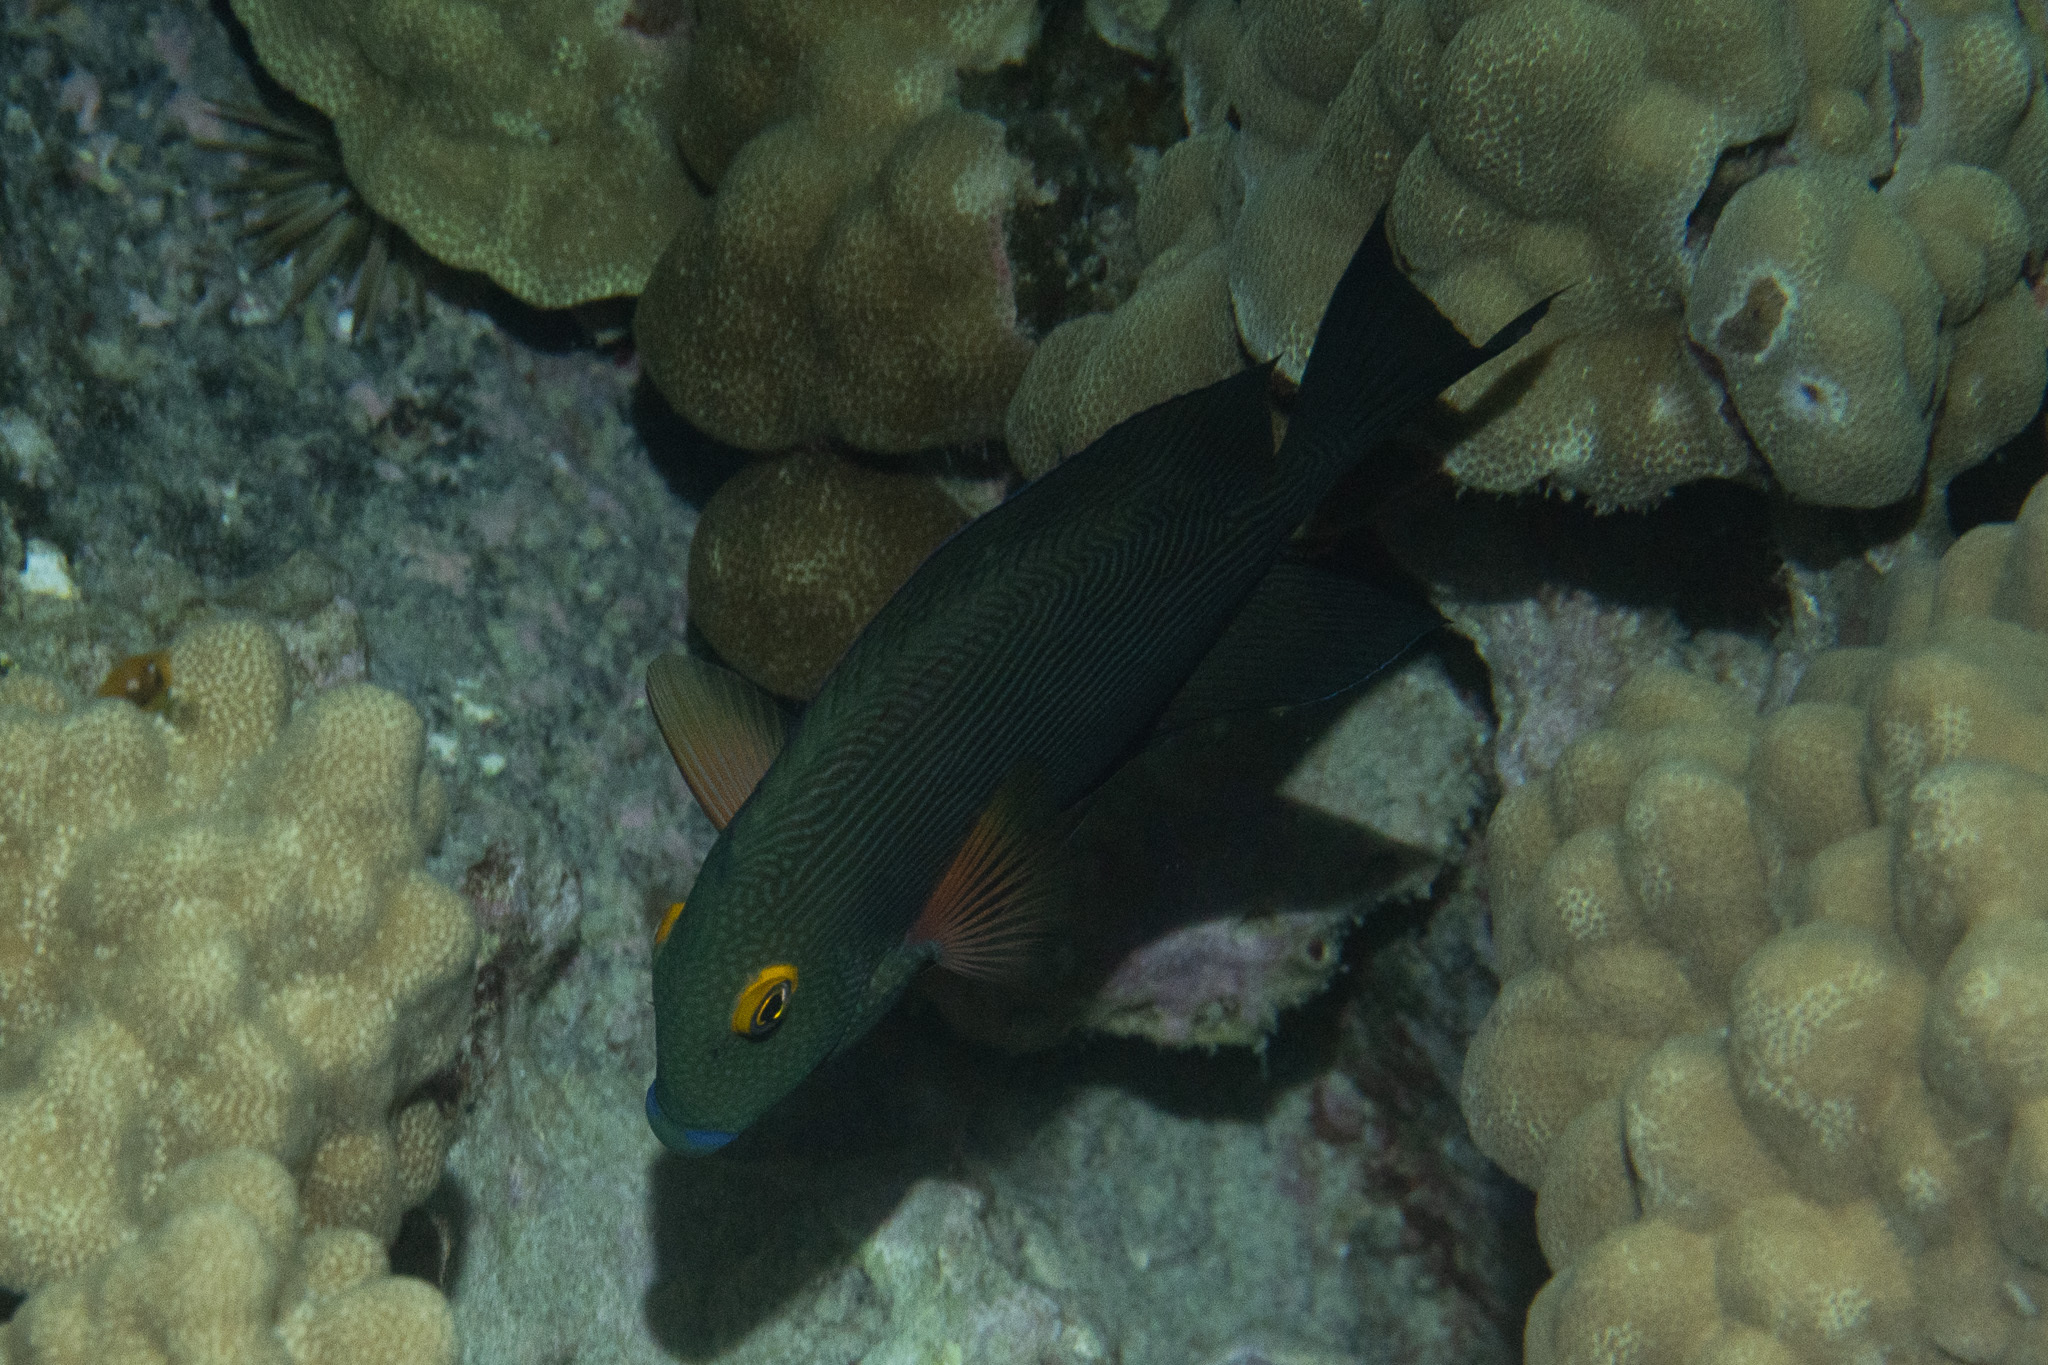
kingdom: Animalia
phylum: Chordata
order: Perciformes
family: Acanthuridae
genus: Ctenochaetus
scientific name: Ctenochaetus strigosus
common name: Bristletoothed surgeonfish
